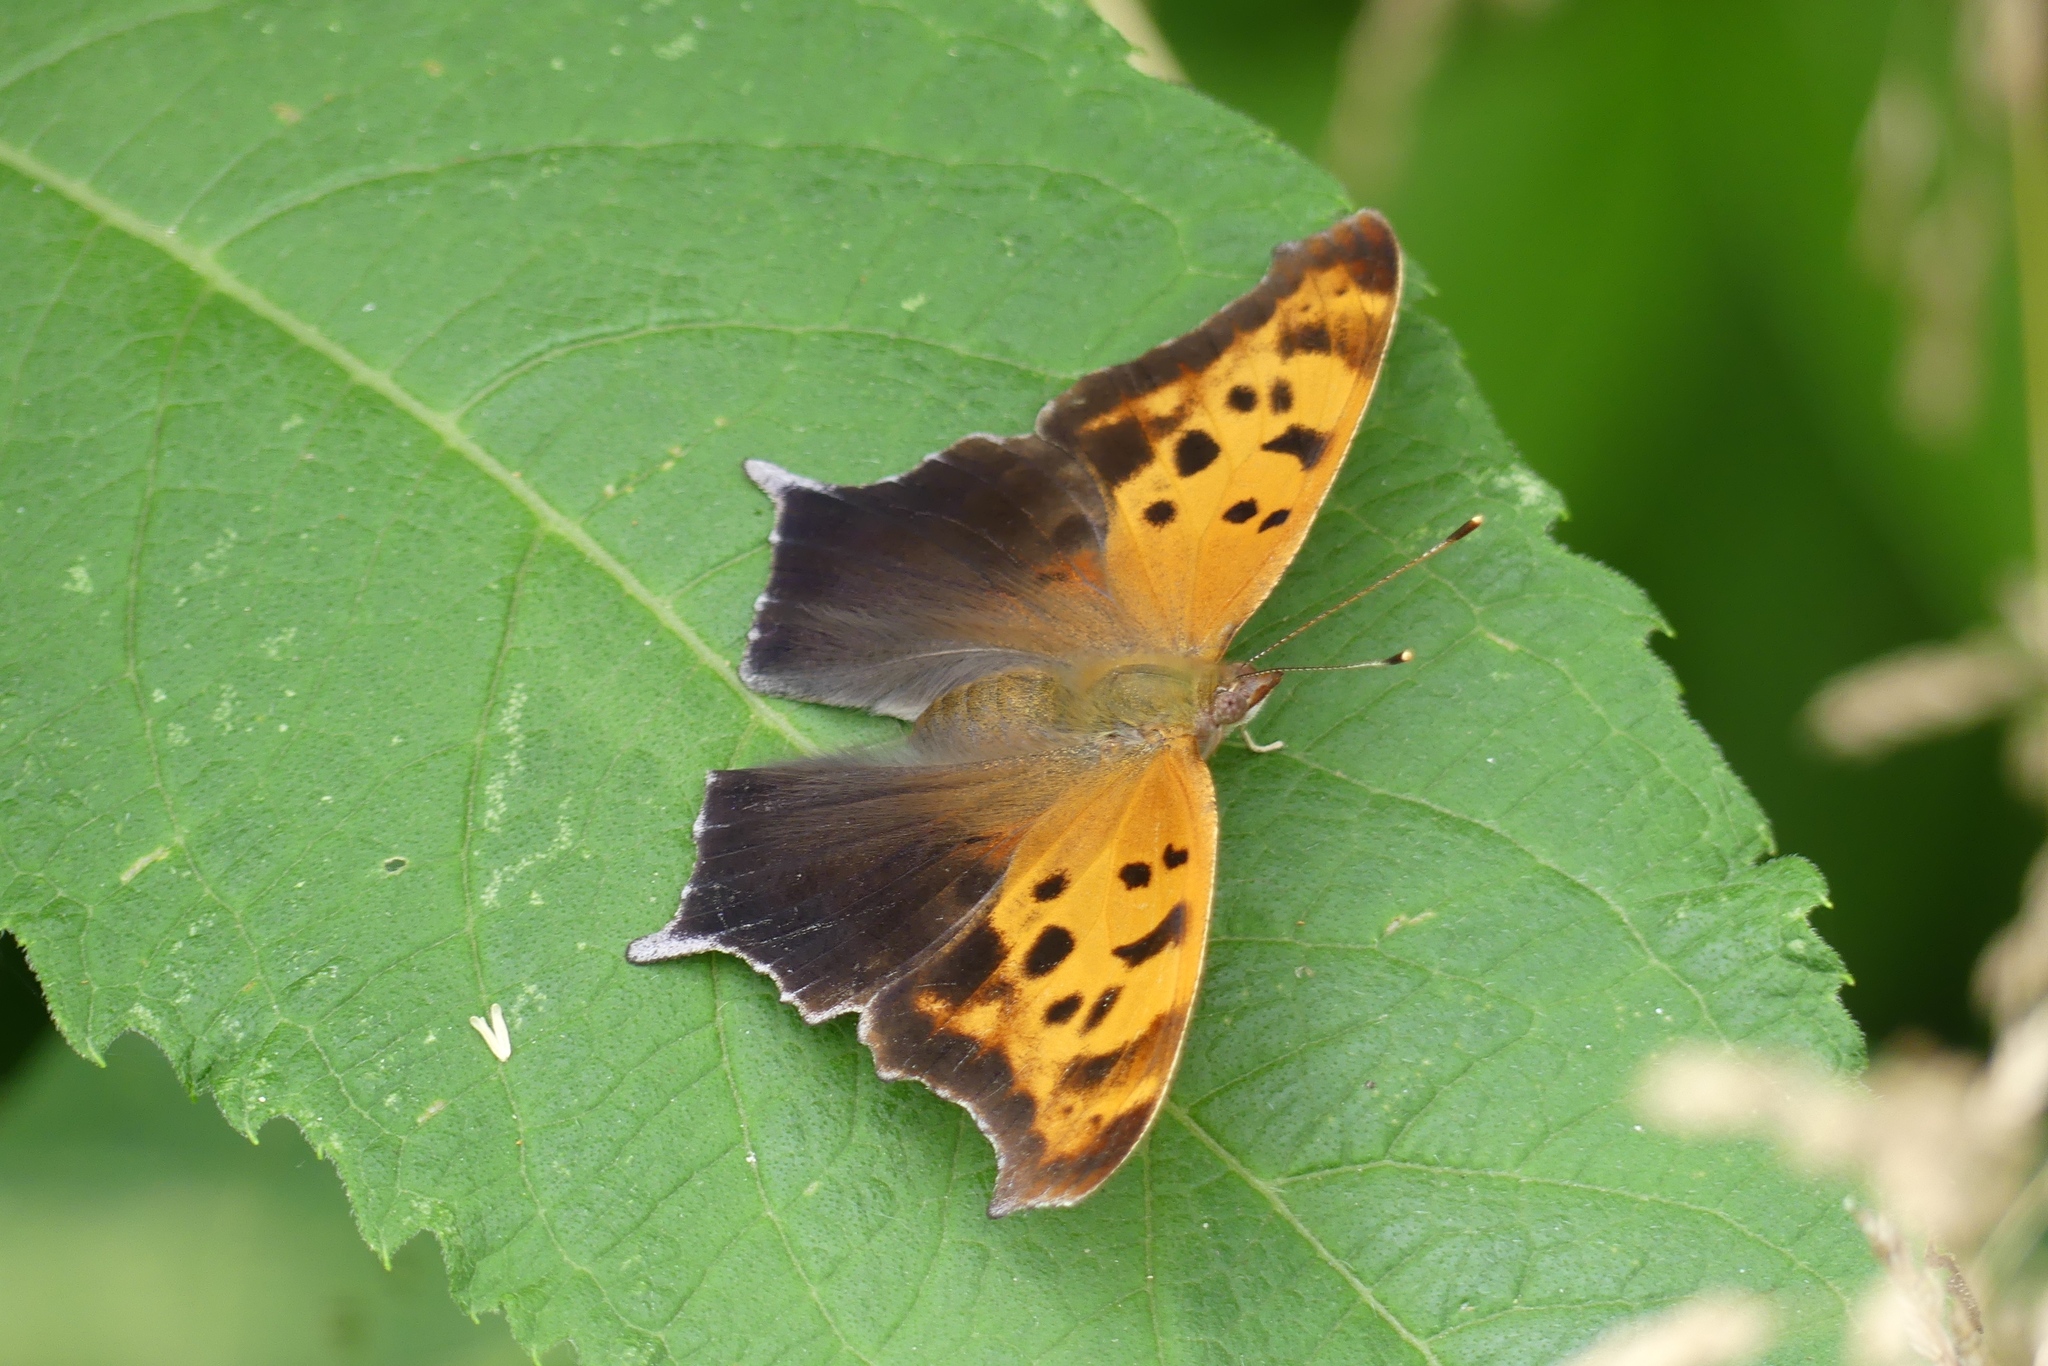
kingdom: Animalia
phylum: Arthropoda
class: Insecta
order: Lepidoptera
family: Nymphalidae
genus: Polygonia
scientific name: Polygonia interrogationis
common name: Question mark
